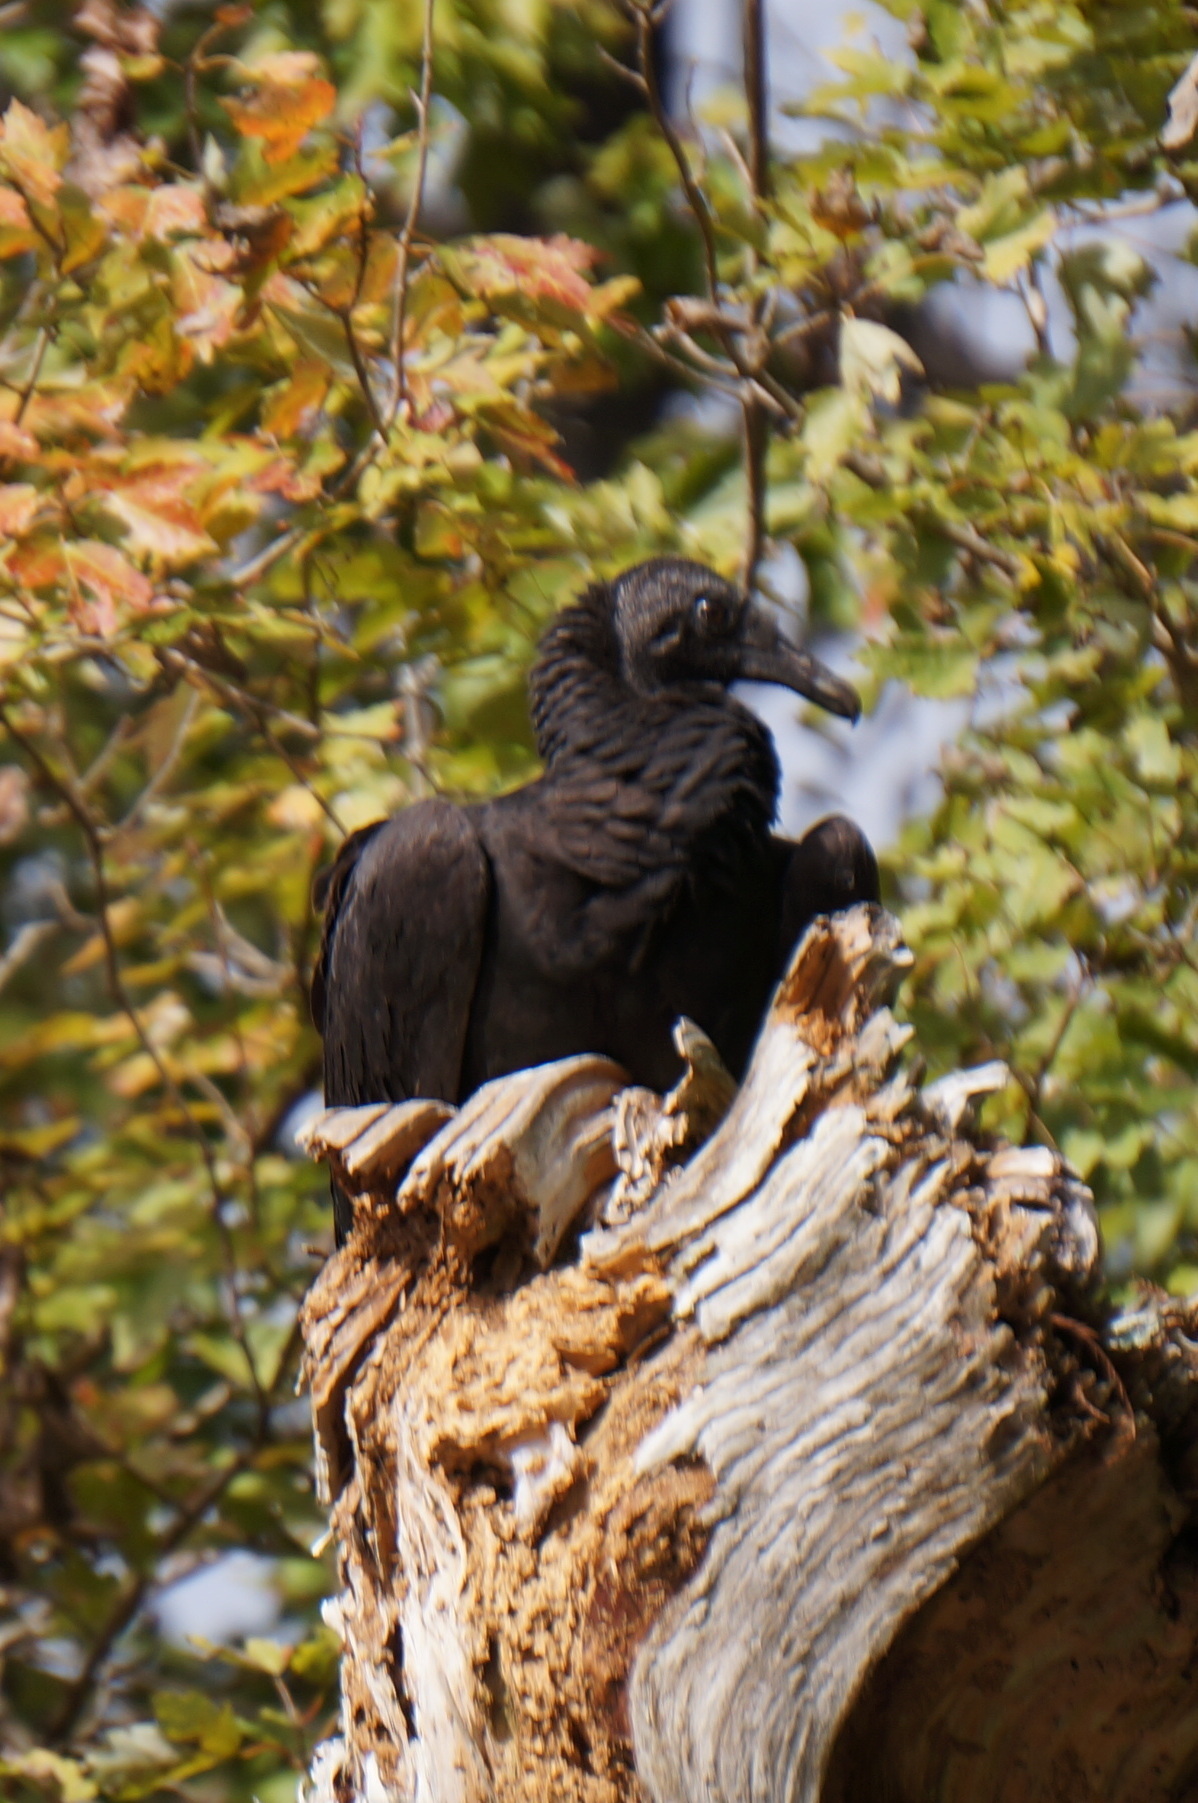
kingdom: Animalia
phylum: Chordata
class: Aves
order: Accipitriformes
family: Cathartidae
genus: Coragyps
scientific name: Coragyps atratus
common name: Black vulture
